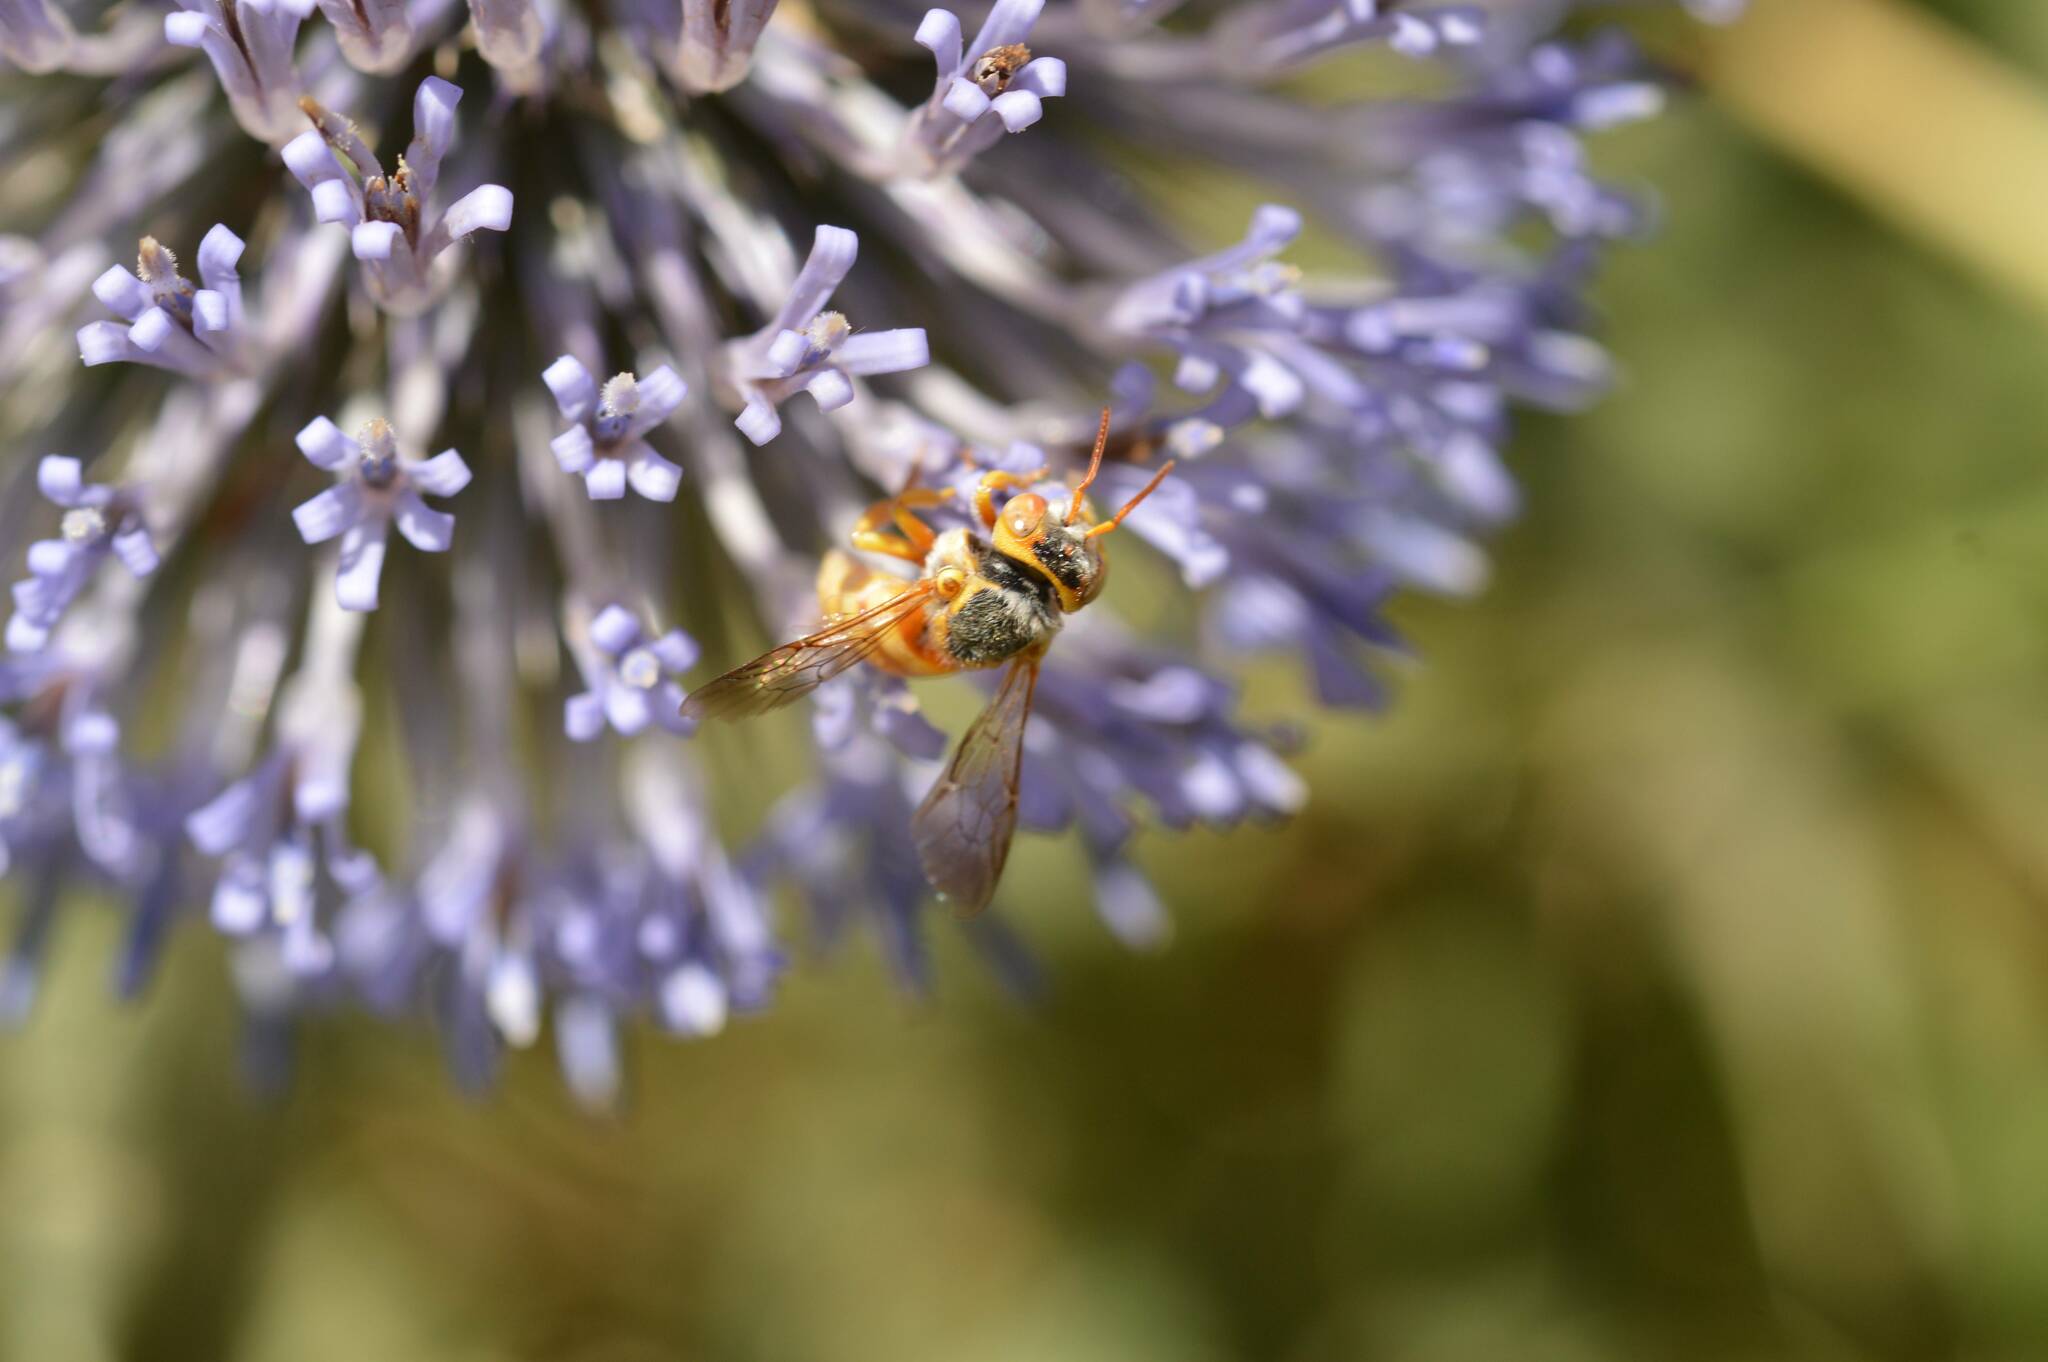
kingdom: Animalia
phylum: Arthropoda
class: Insecta
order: Hymenoptera
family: Megachilidae
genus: Icteranthidium
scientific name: Icteranthidium ferrugineum
